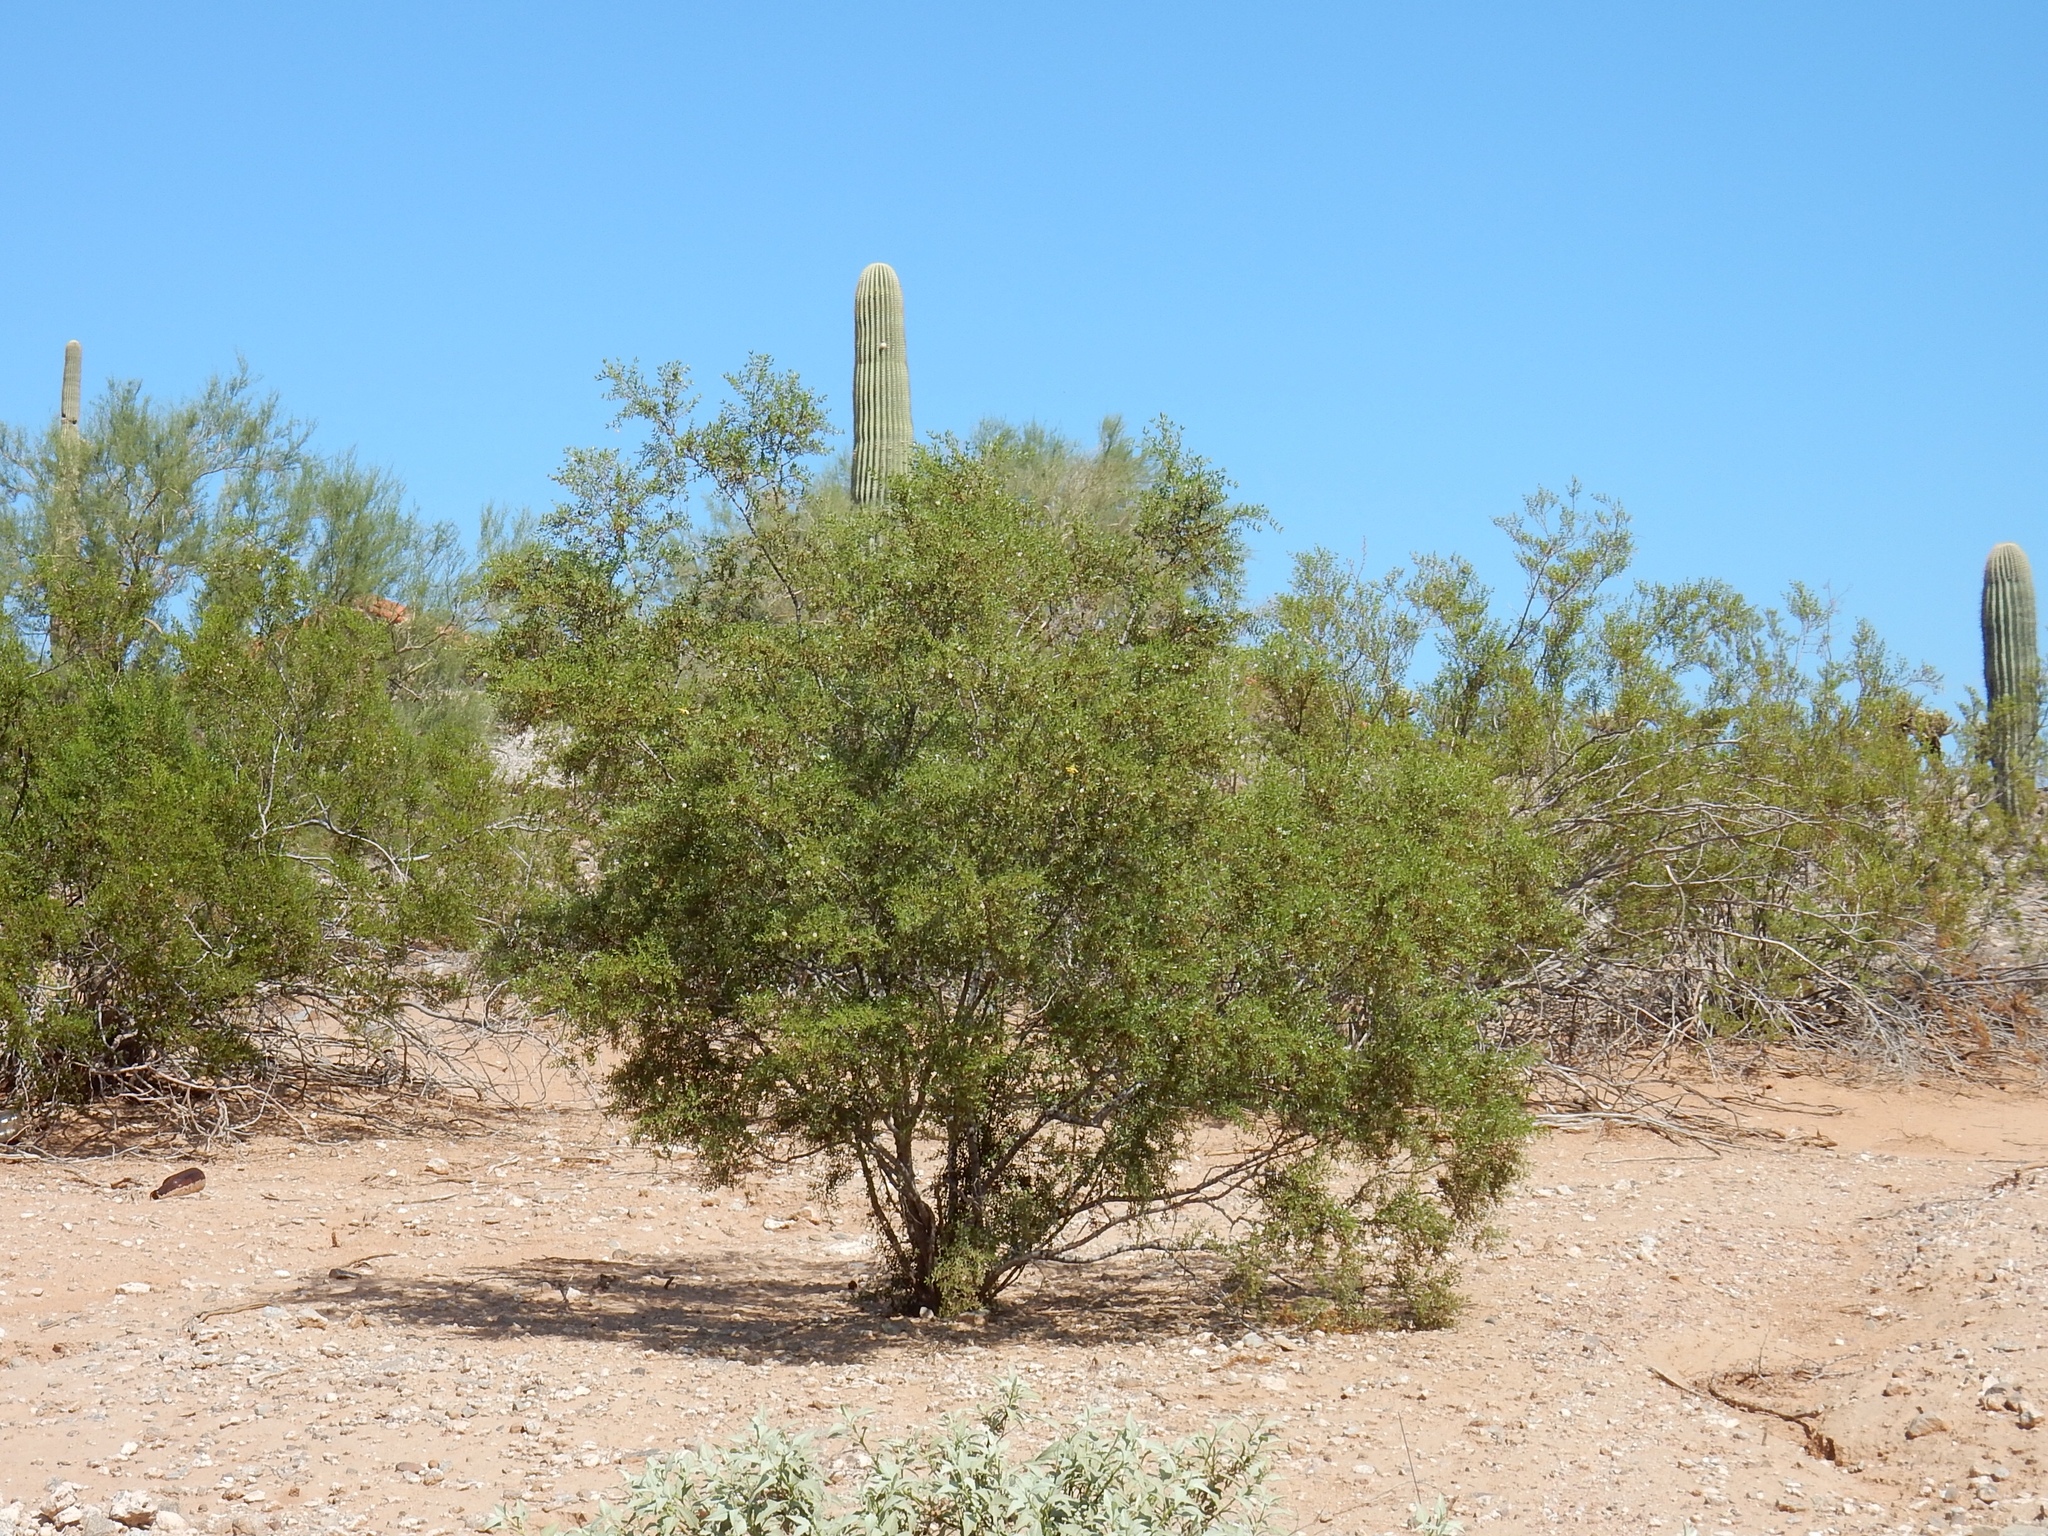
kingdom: Plantae
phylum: Tracheophyta
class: Magnoliopsida
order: Zygophyllales
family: Zygophyllaceae
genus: Larrea
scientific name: Larrea tridentata
